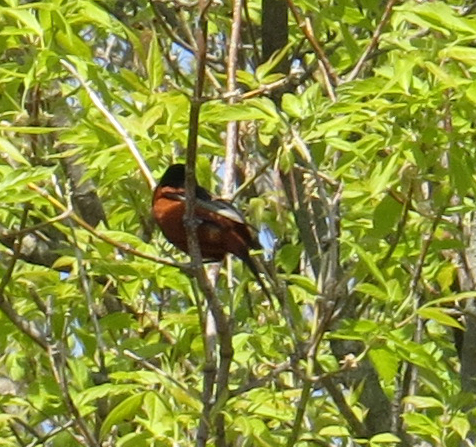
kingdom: Animalia
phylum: Chordata
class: Aves
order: Passeriformes
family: Icteridae
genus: Icterus
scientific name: Icterus spurius
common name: Orchard oriole
